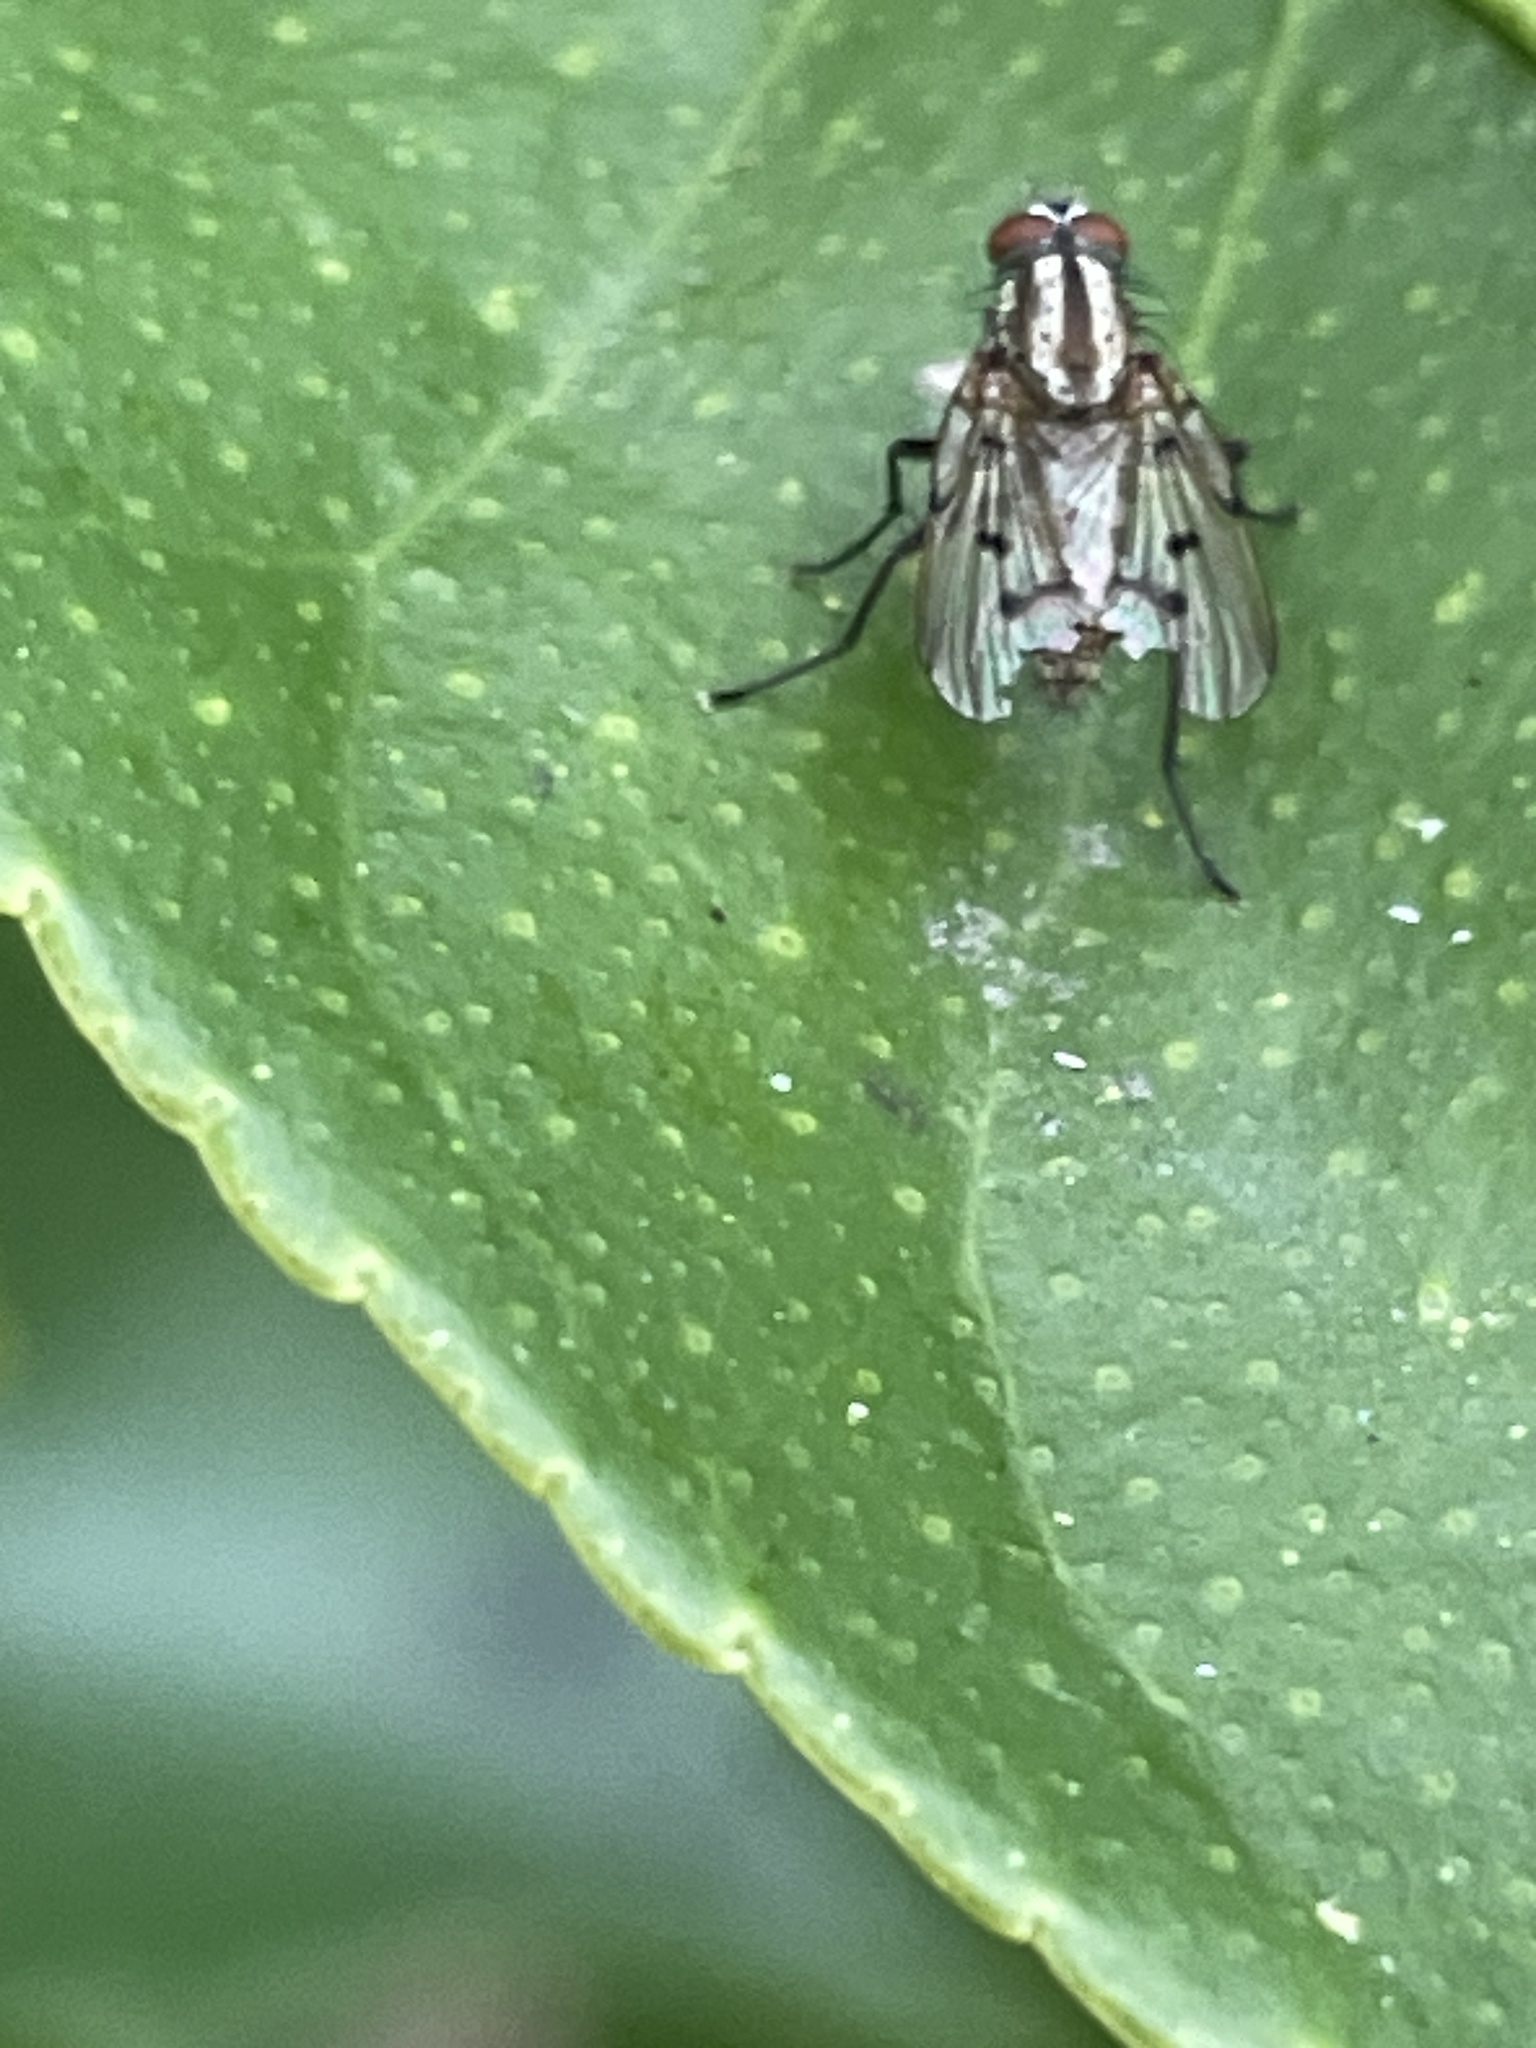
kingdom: Animalia
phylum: Arthropoda
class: Insecta
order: Diptera
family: Anthomyiidae
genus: Anthomyia
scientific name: Anthomyia punctipennis
